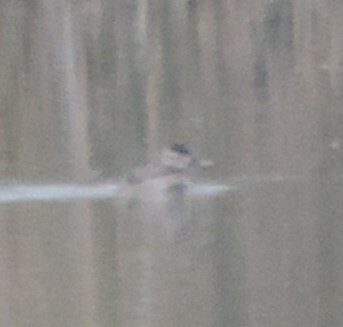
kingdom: Animalia
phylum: Chordata
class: Aves
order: Anseriformes
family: Anatidae
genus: Oxyura
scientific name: Oxyura jamaicensis
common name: Ruddy duck
